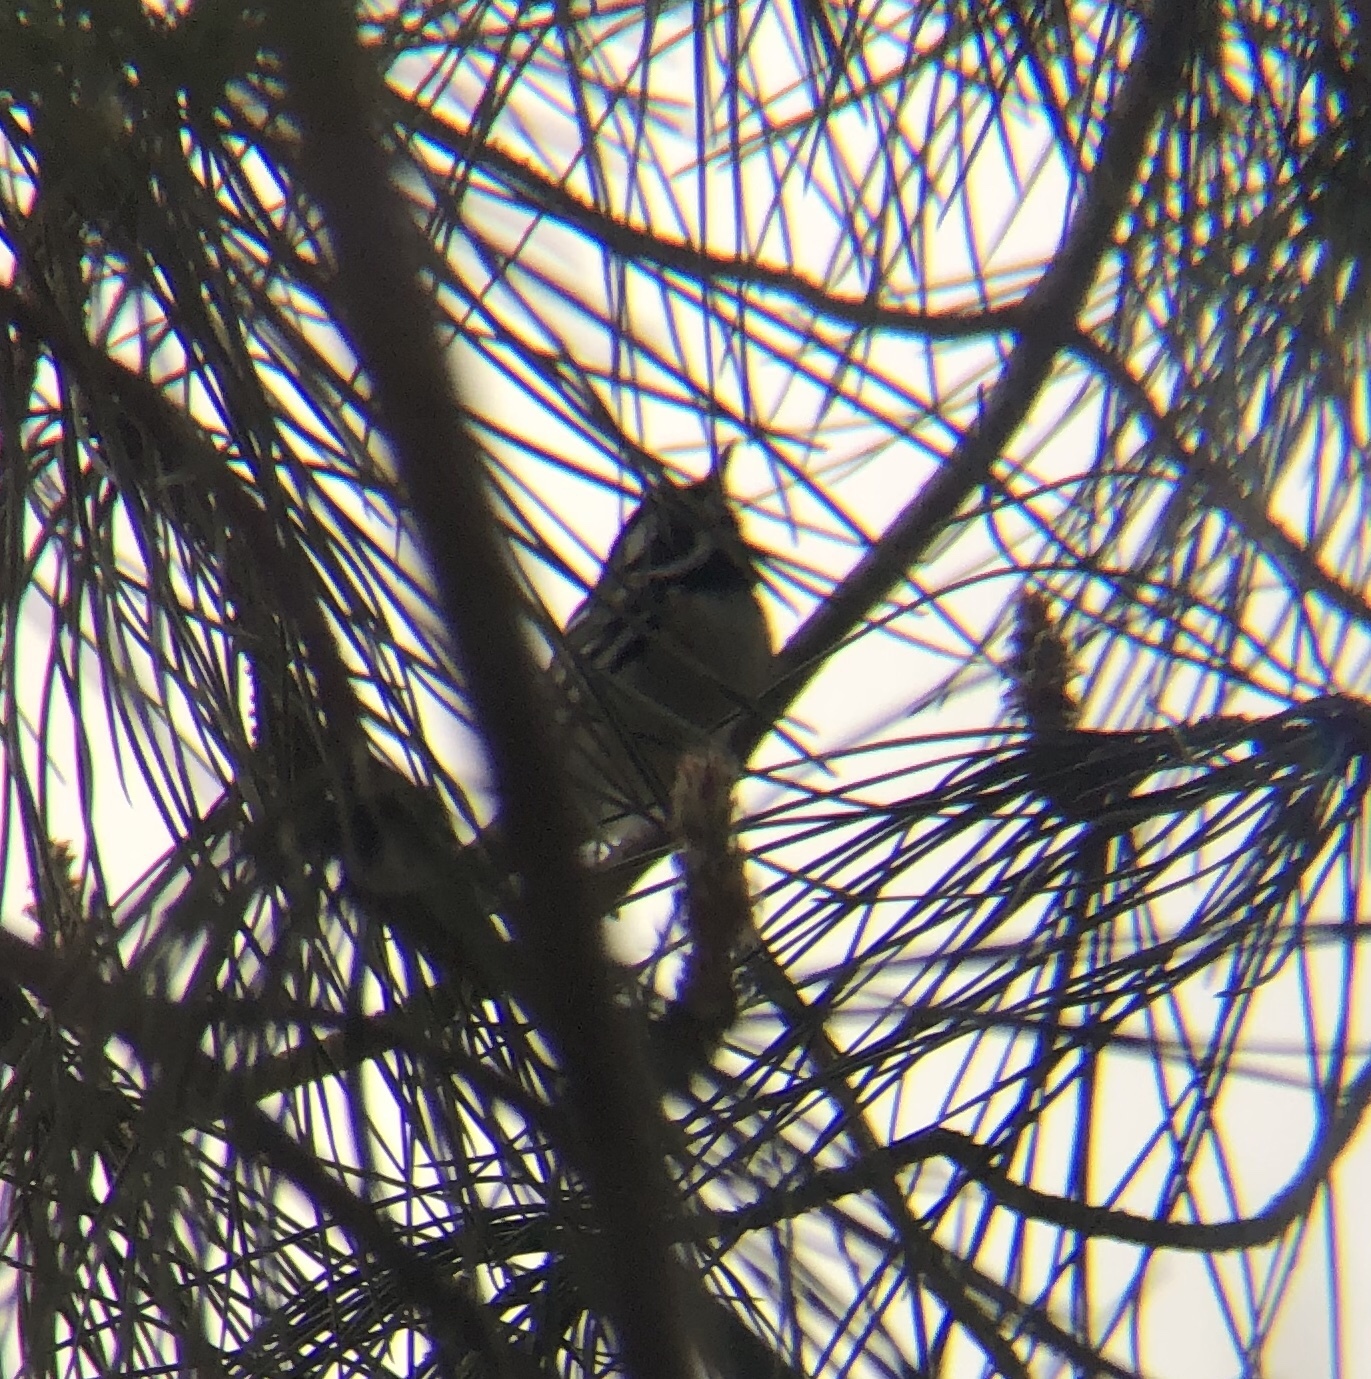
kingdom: Animalia
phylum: Chordata
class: Aves
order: Passeriformes
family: Parulidae
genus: Setophaga
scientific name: Setophaga nigrescens
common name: Black-throated gray warbler
